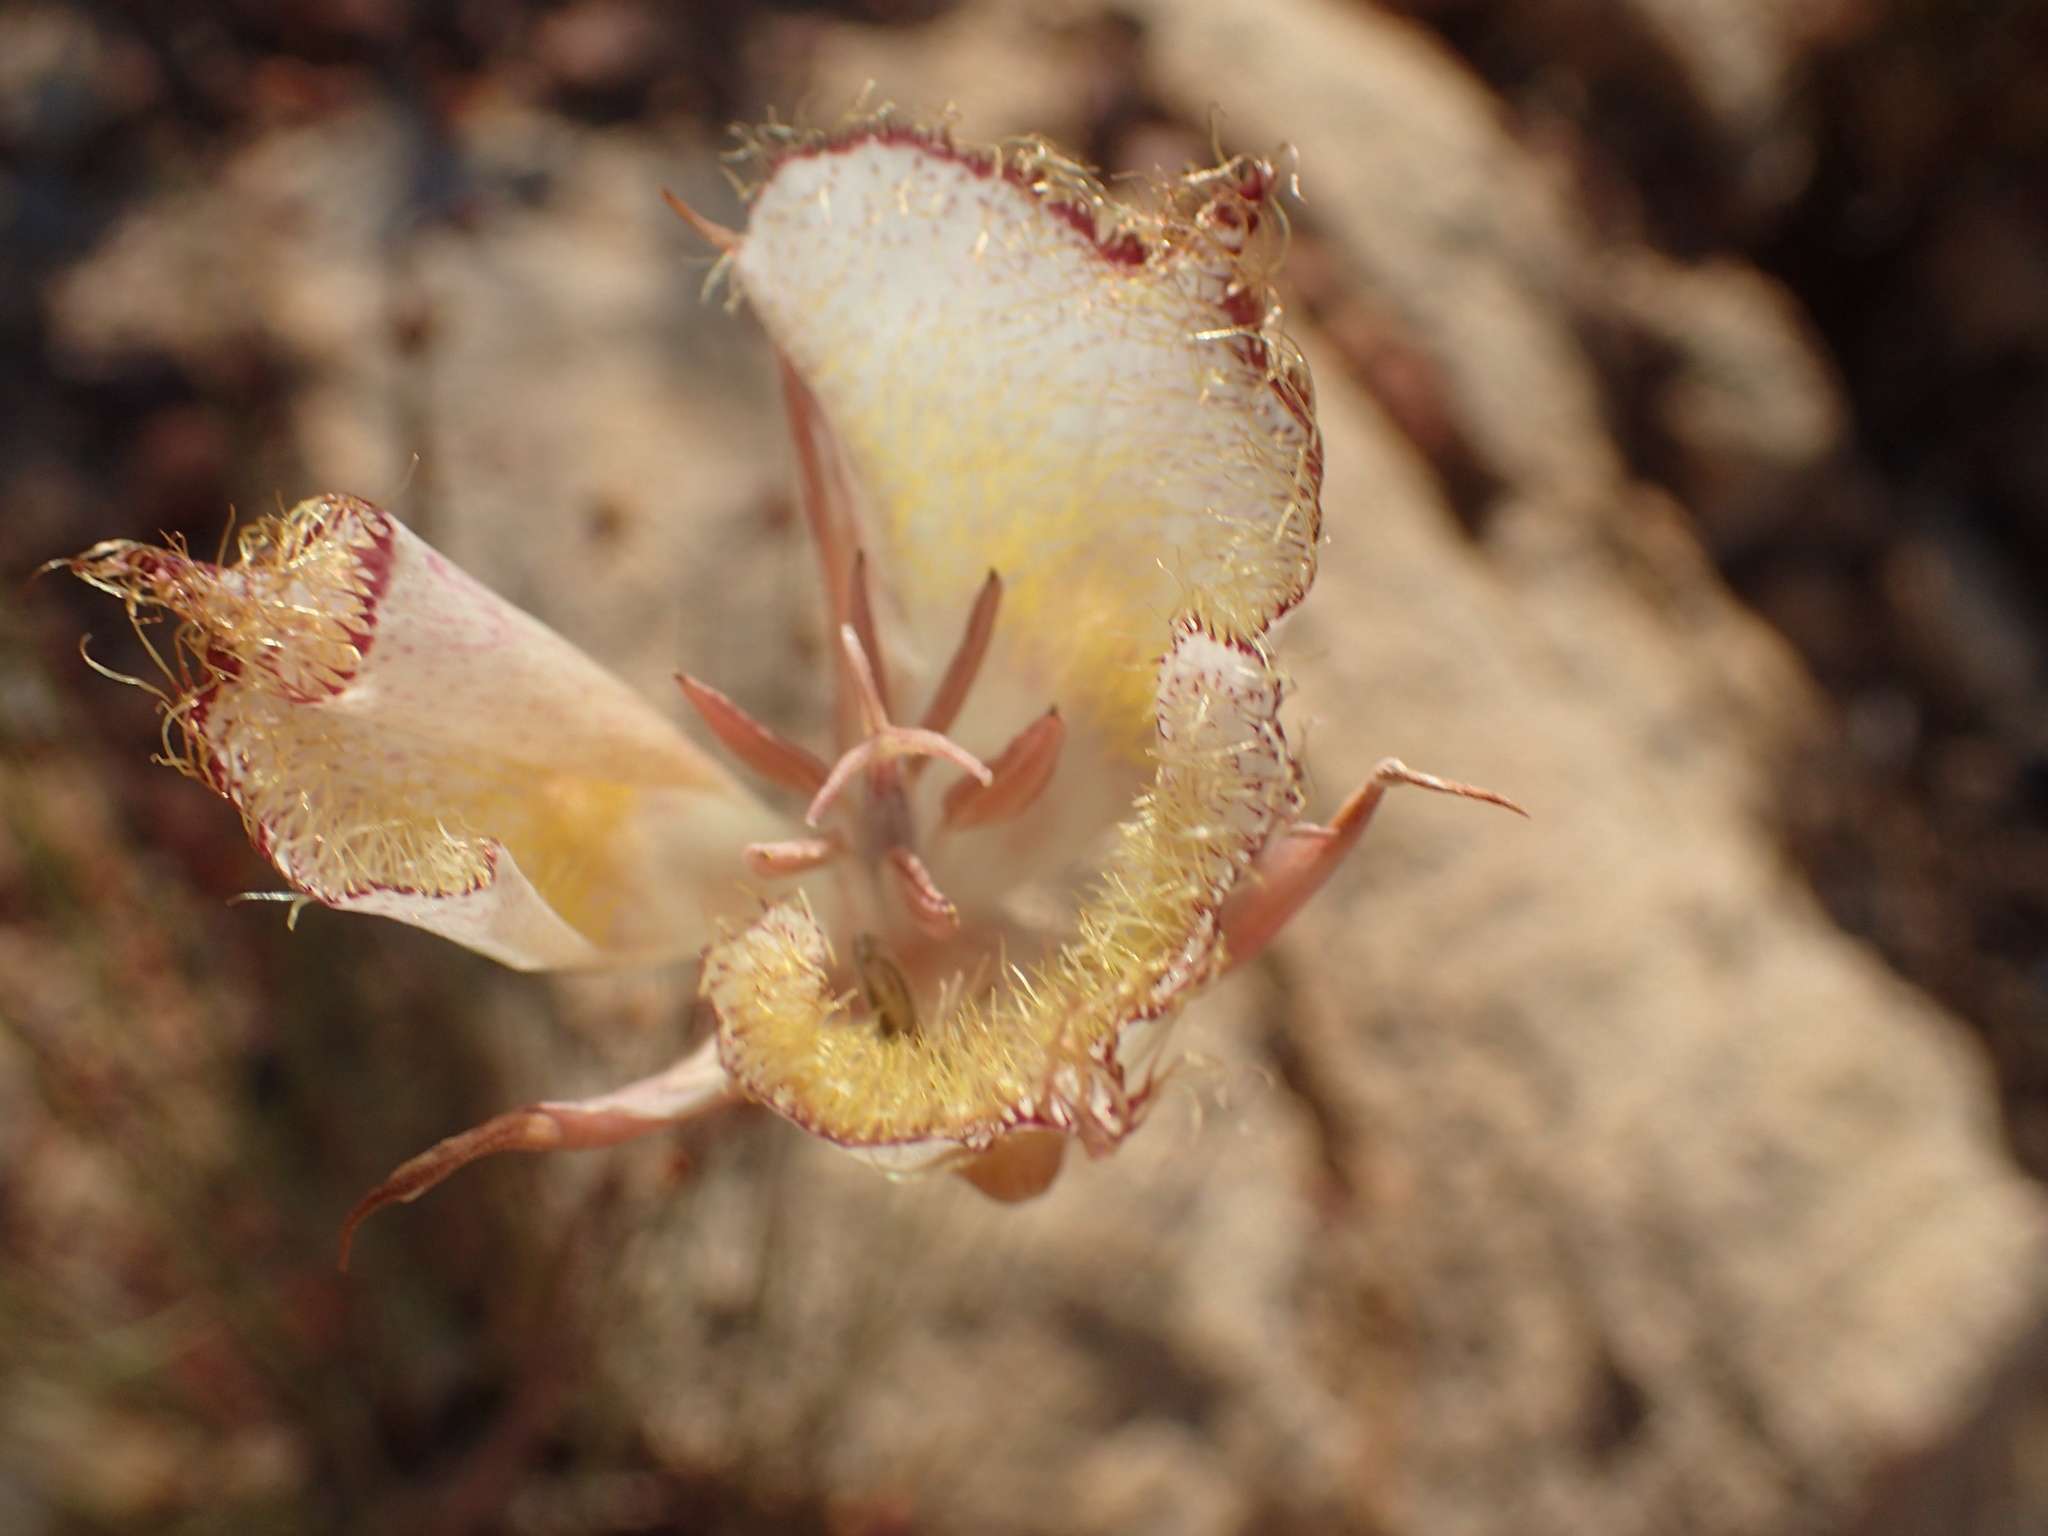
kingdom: Plantae
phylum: Tracheophyta
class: Liliopsida
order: Liliales
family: Liliaceae
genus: Calochortus
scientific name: Calochortus fimbriatus
